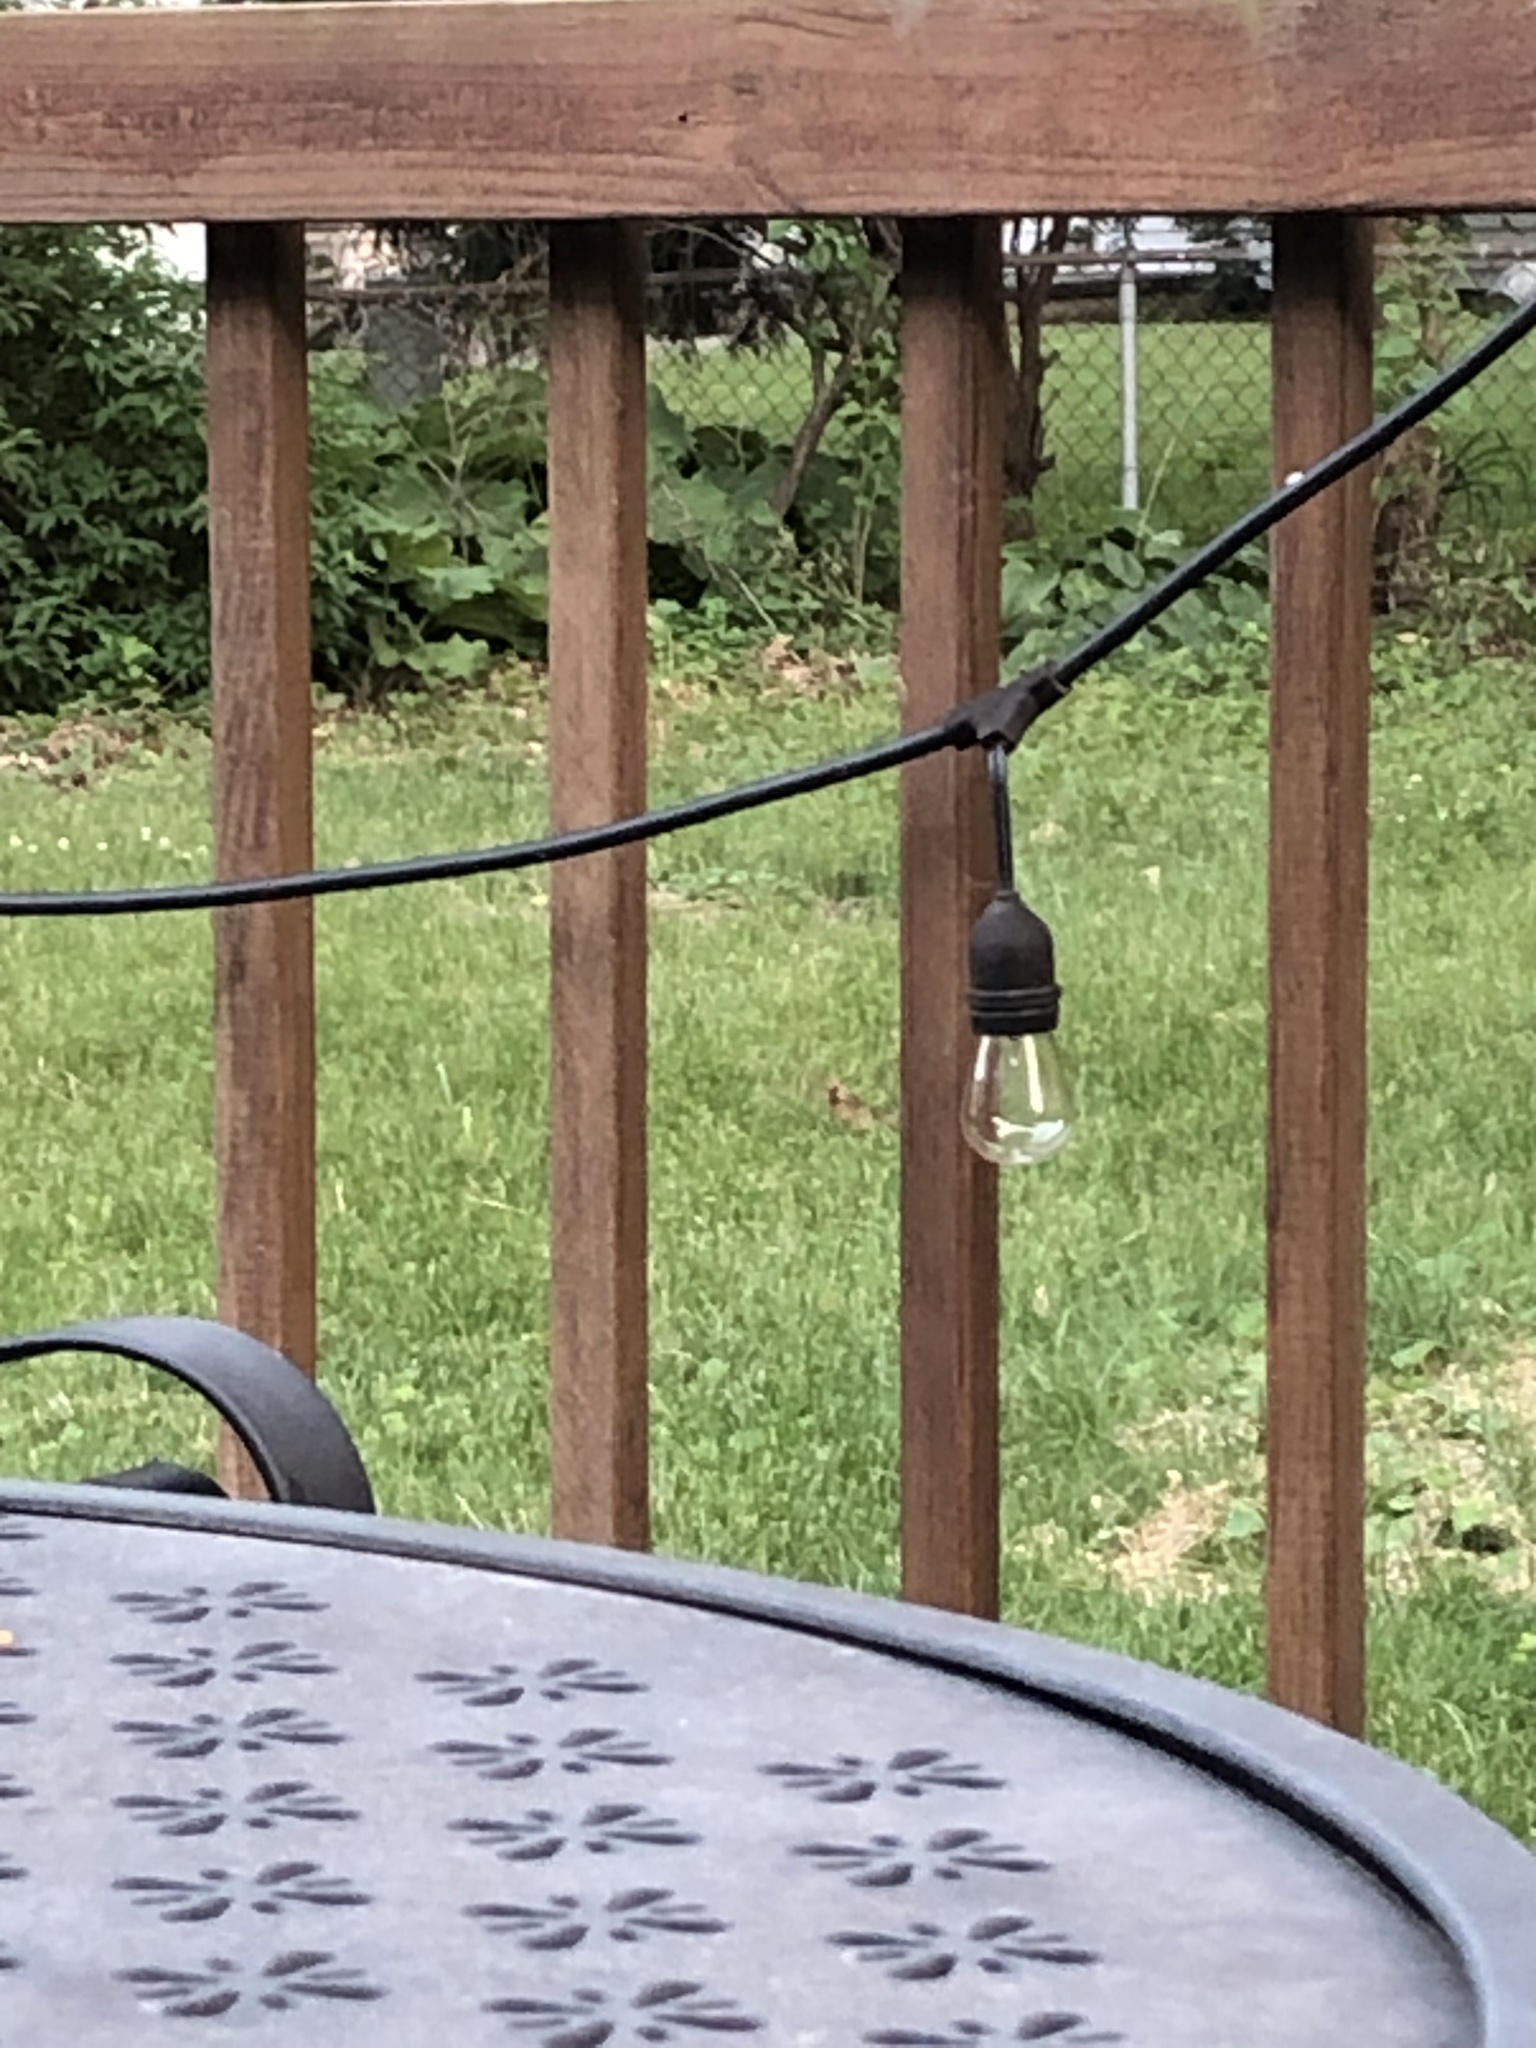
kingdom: Animalia
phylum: Chordata
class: Aves
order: Passeriformes
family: Cardinalidae
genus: Cardinalis
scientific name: Cardinalis cardinalis
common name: Northern cardinal
